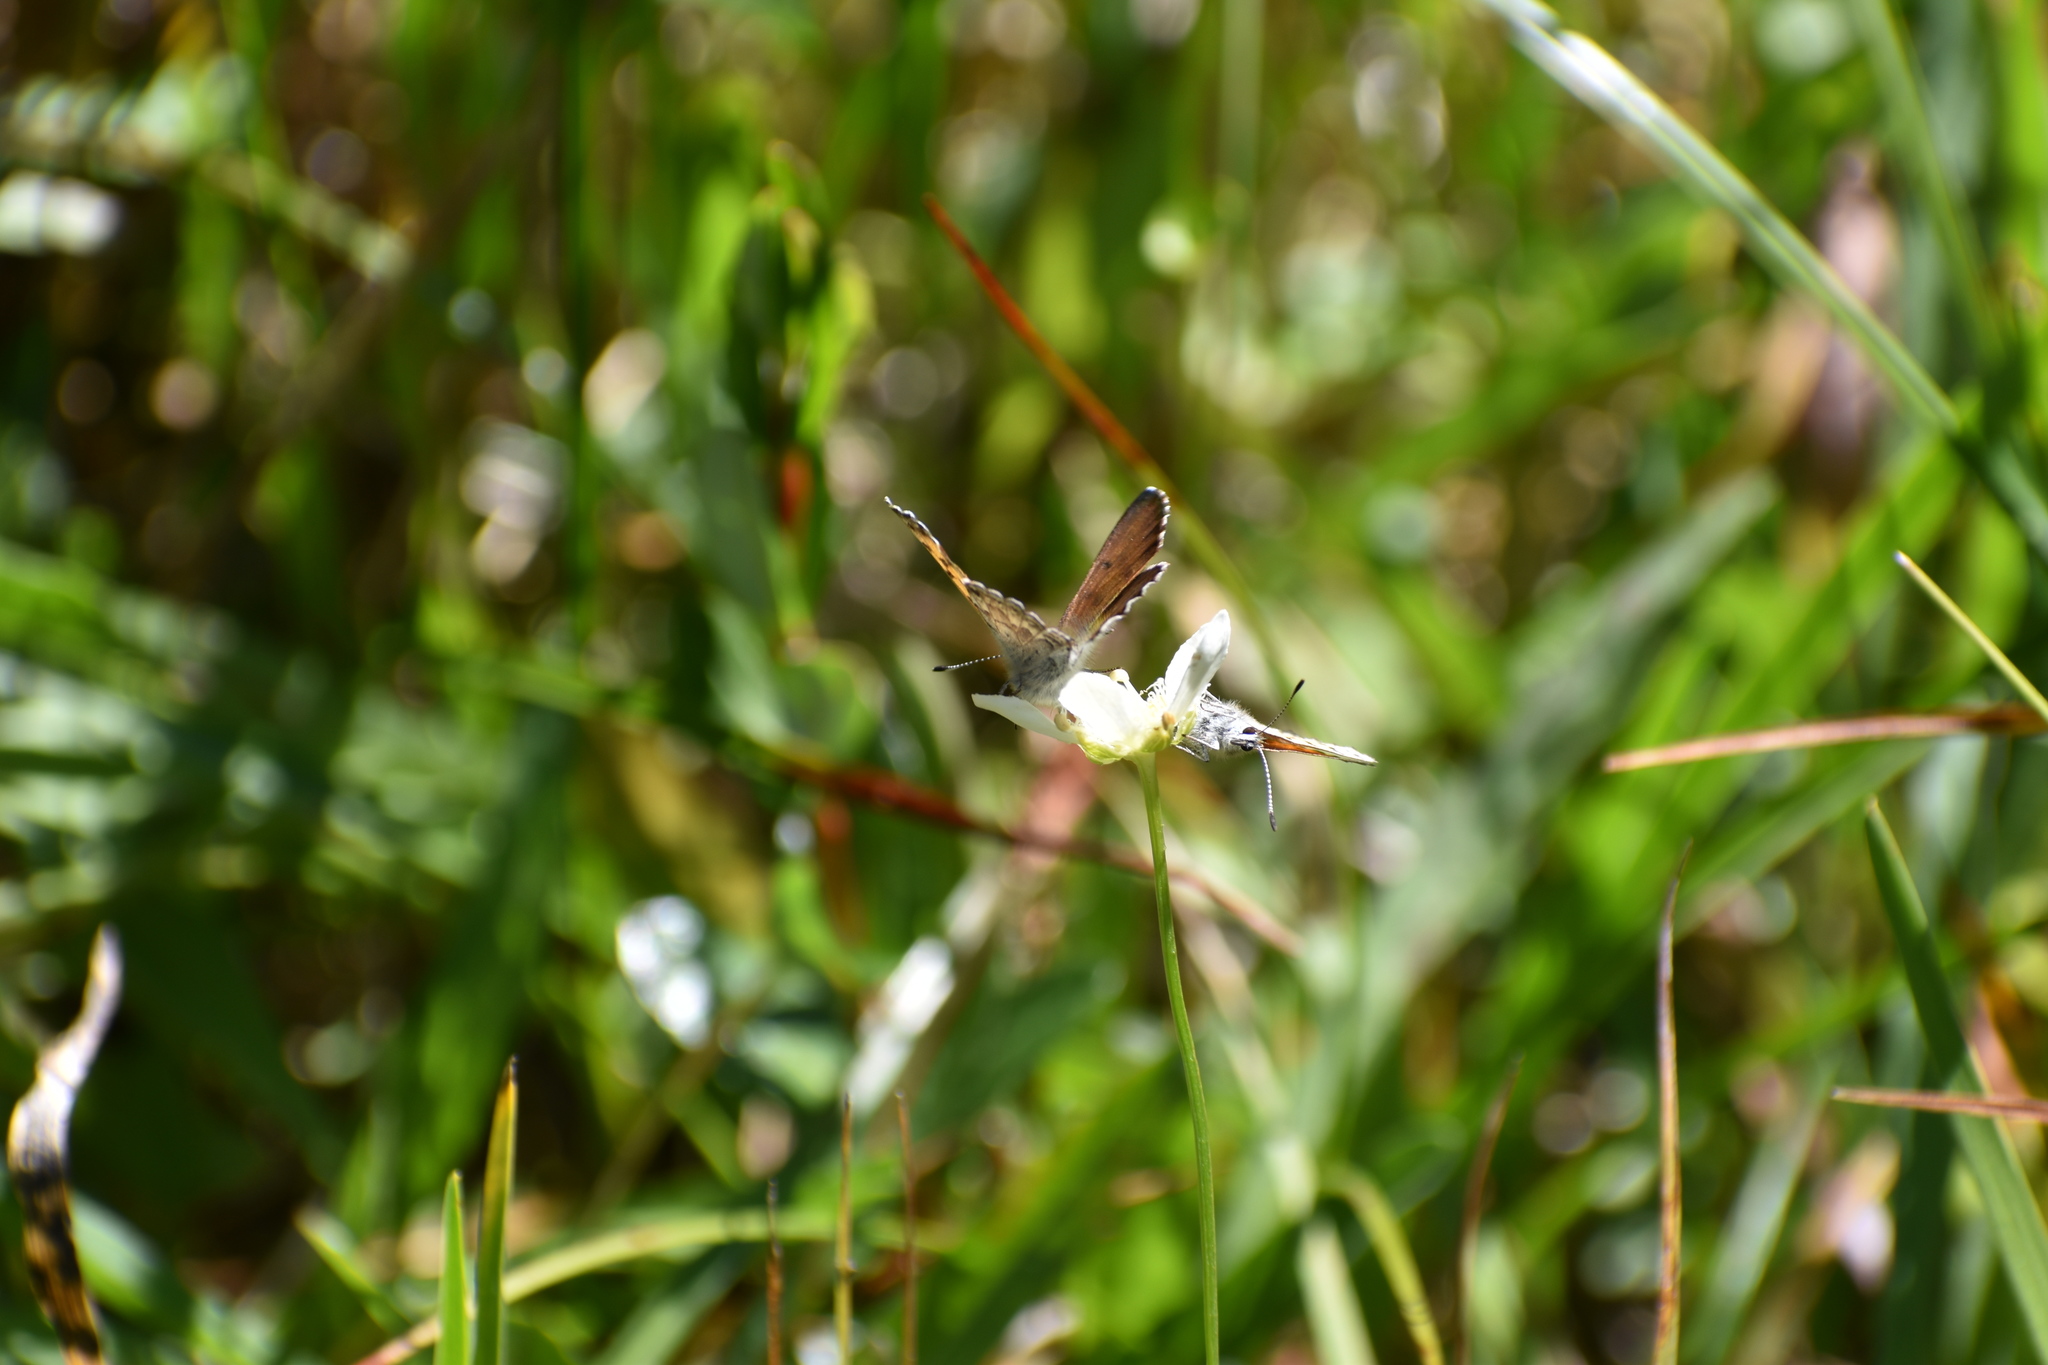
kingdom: Animalia
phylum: Arthropoda
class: Insecta
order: Lepidoptera
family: Lycaenidae
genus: Tharsalea
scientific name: Tharsalea mariposa
